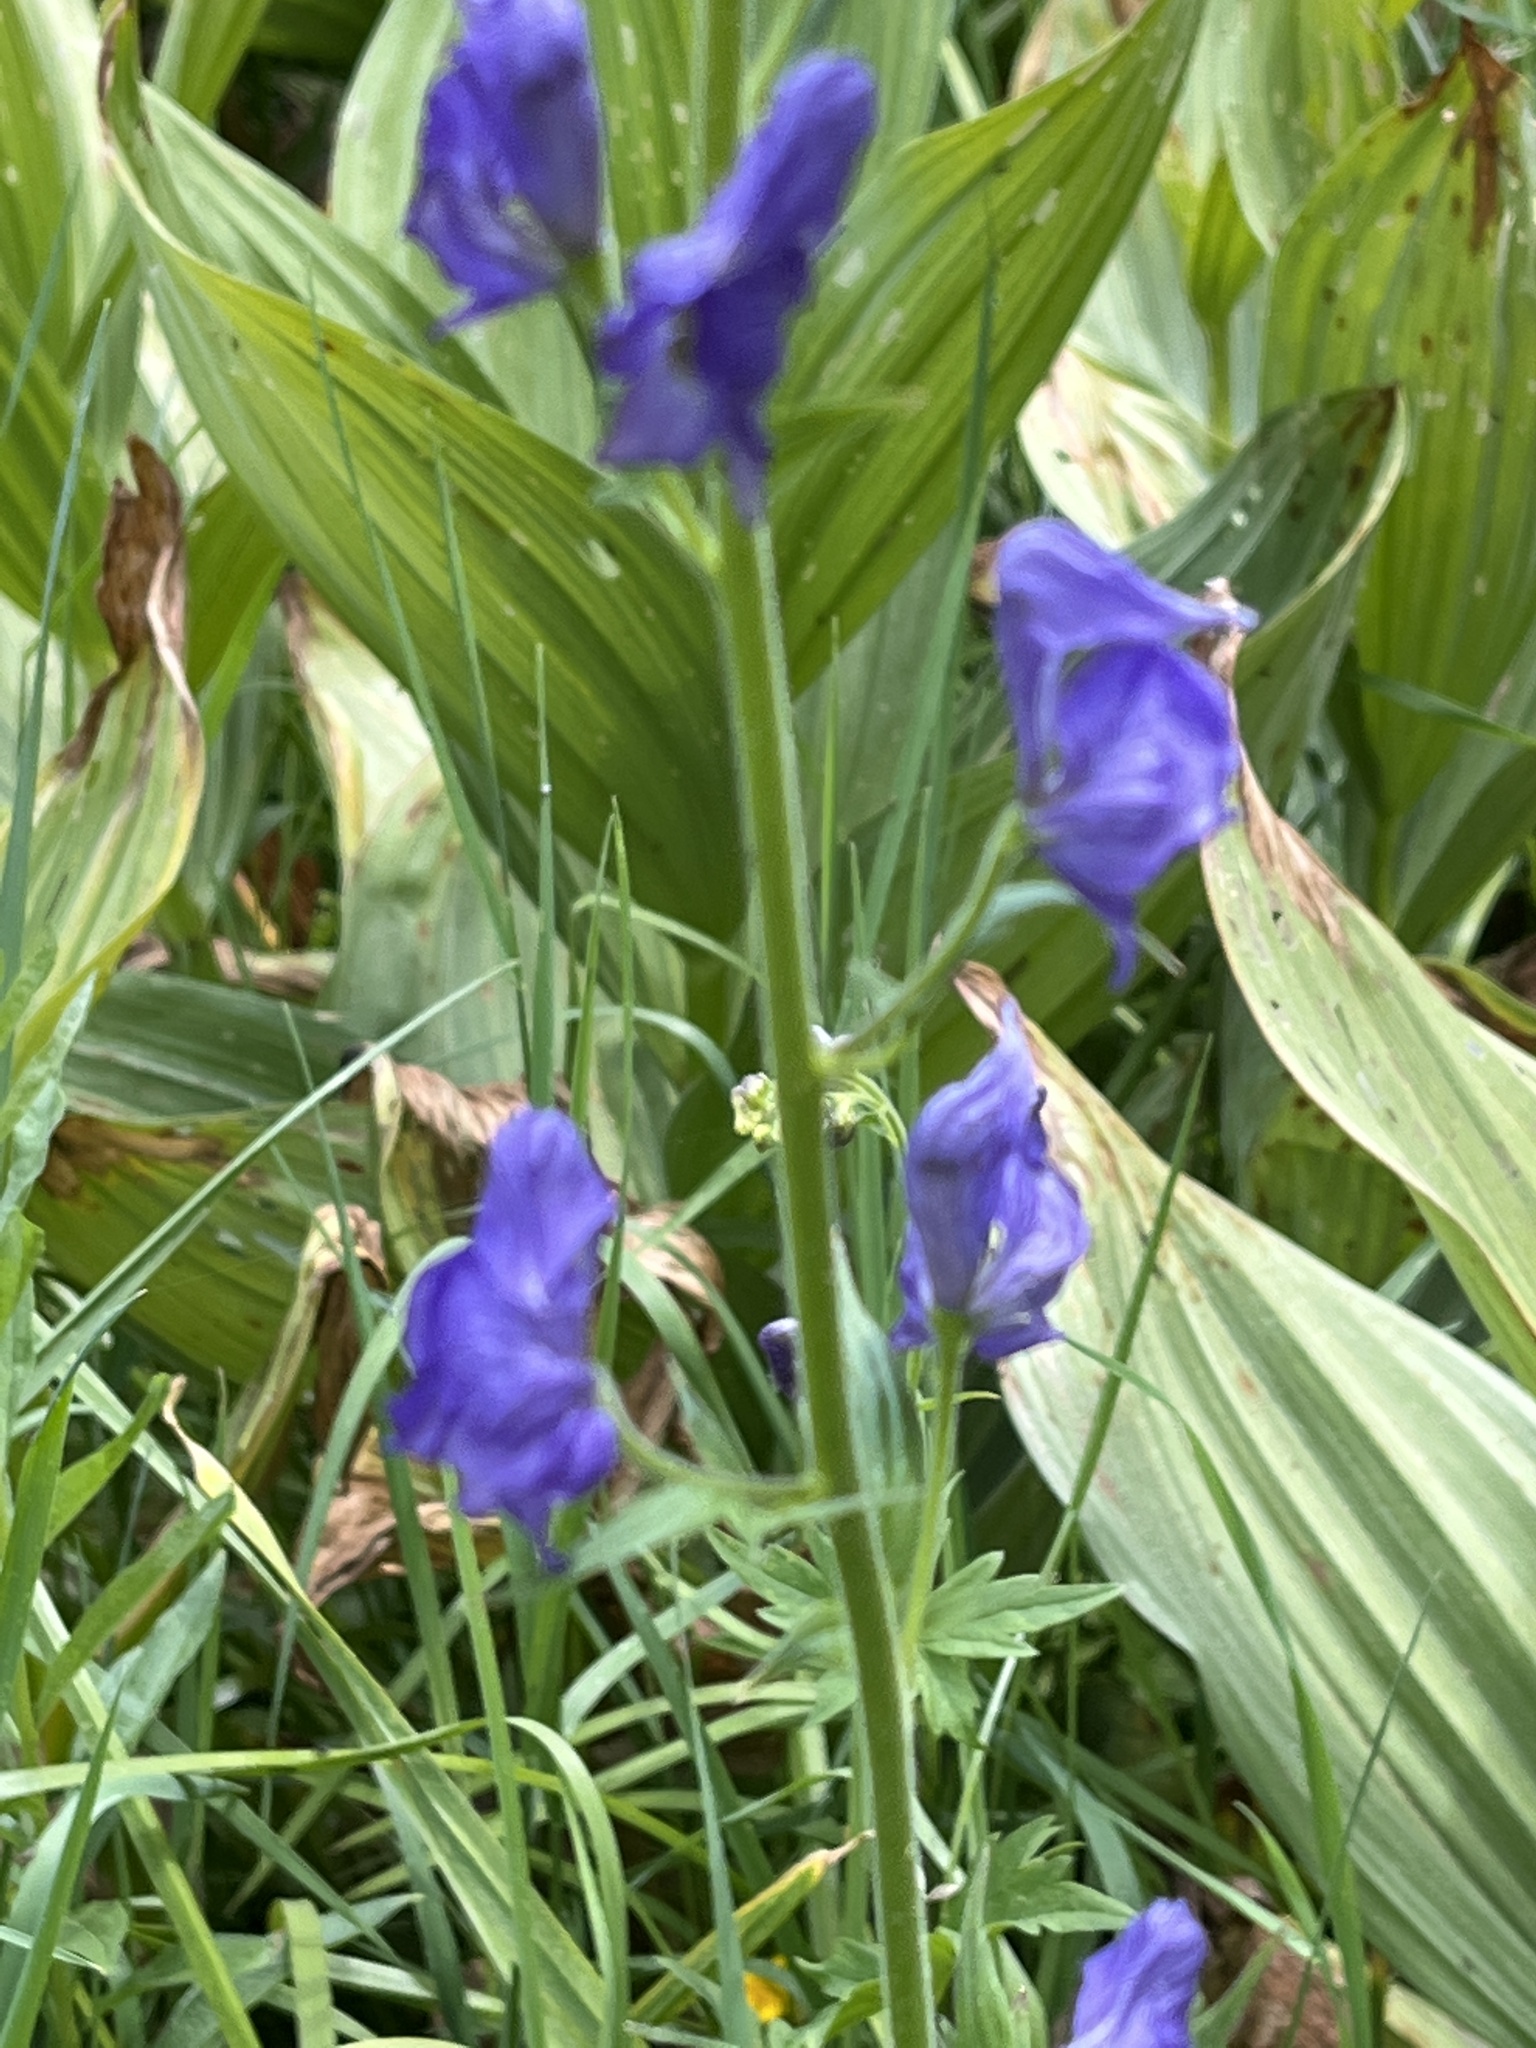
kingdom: Plantae
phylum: Tracheophyta
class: Magnoliopsida
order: Ranunculales
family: Ranunculaceae
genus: Aconitum
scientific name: Aconitum columbianum
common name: Columbia aconite
